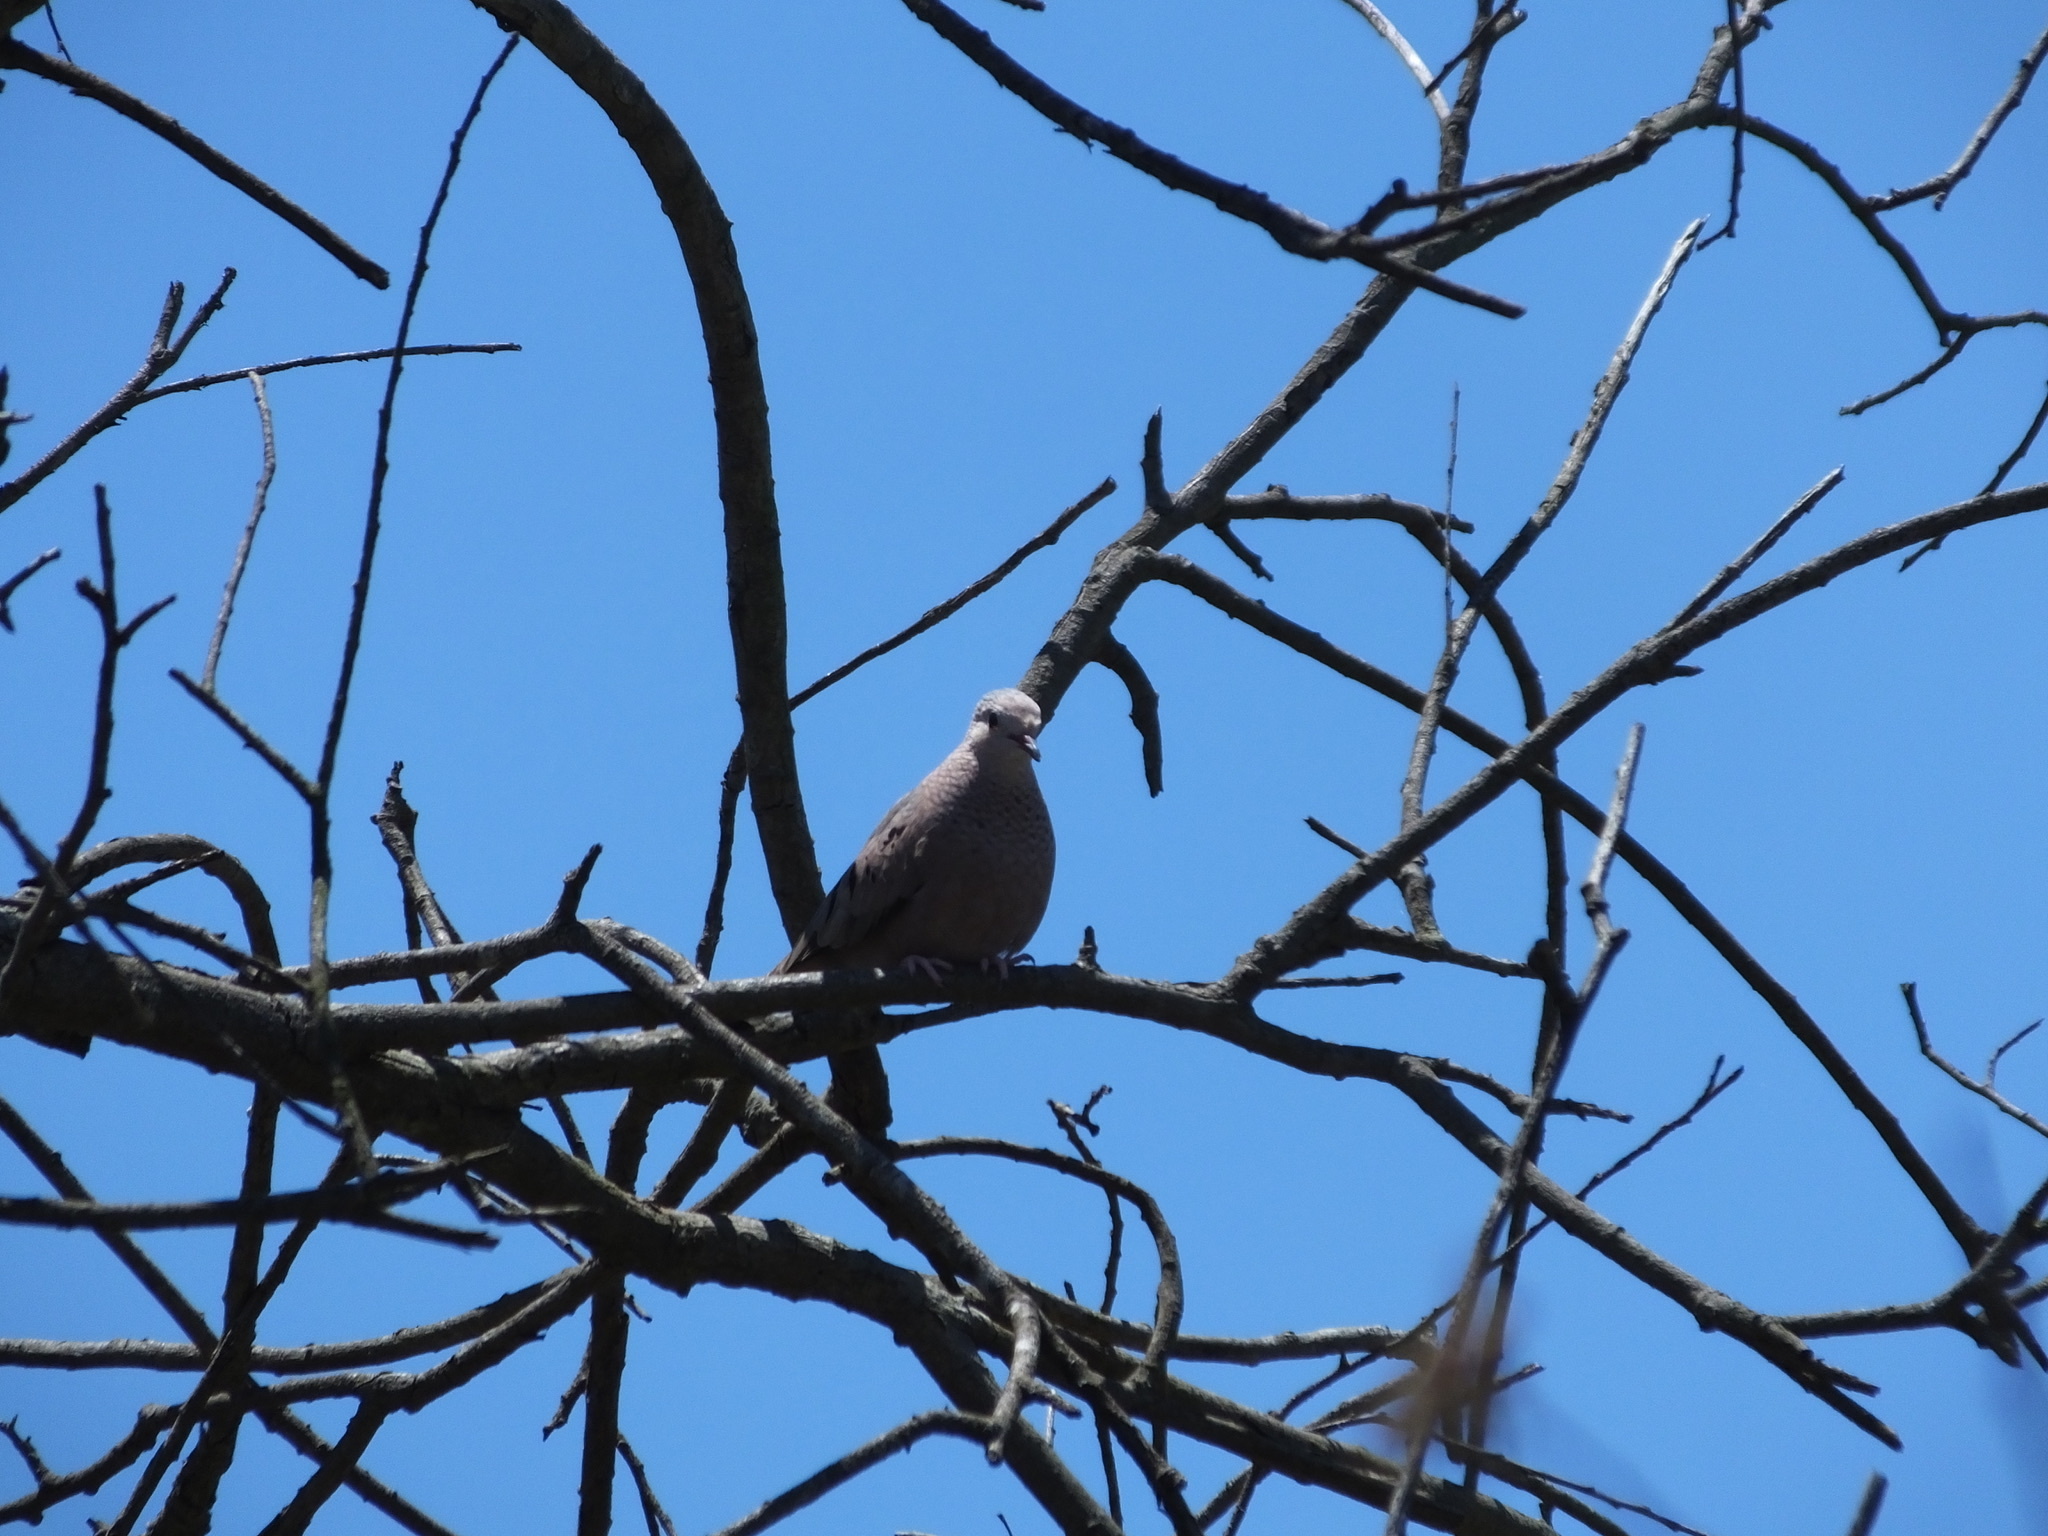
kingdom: Animalia
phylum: Chordata
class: Aves
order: Columbiformes
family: Columbidae
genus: Columbina
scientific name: Columbina passerina
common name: Common ground-dove
